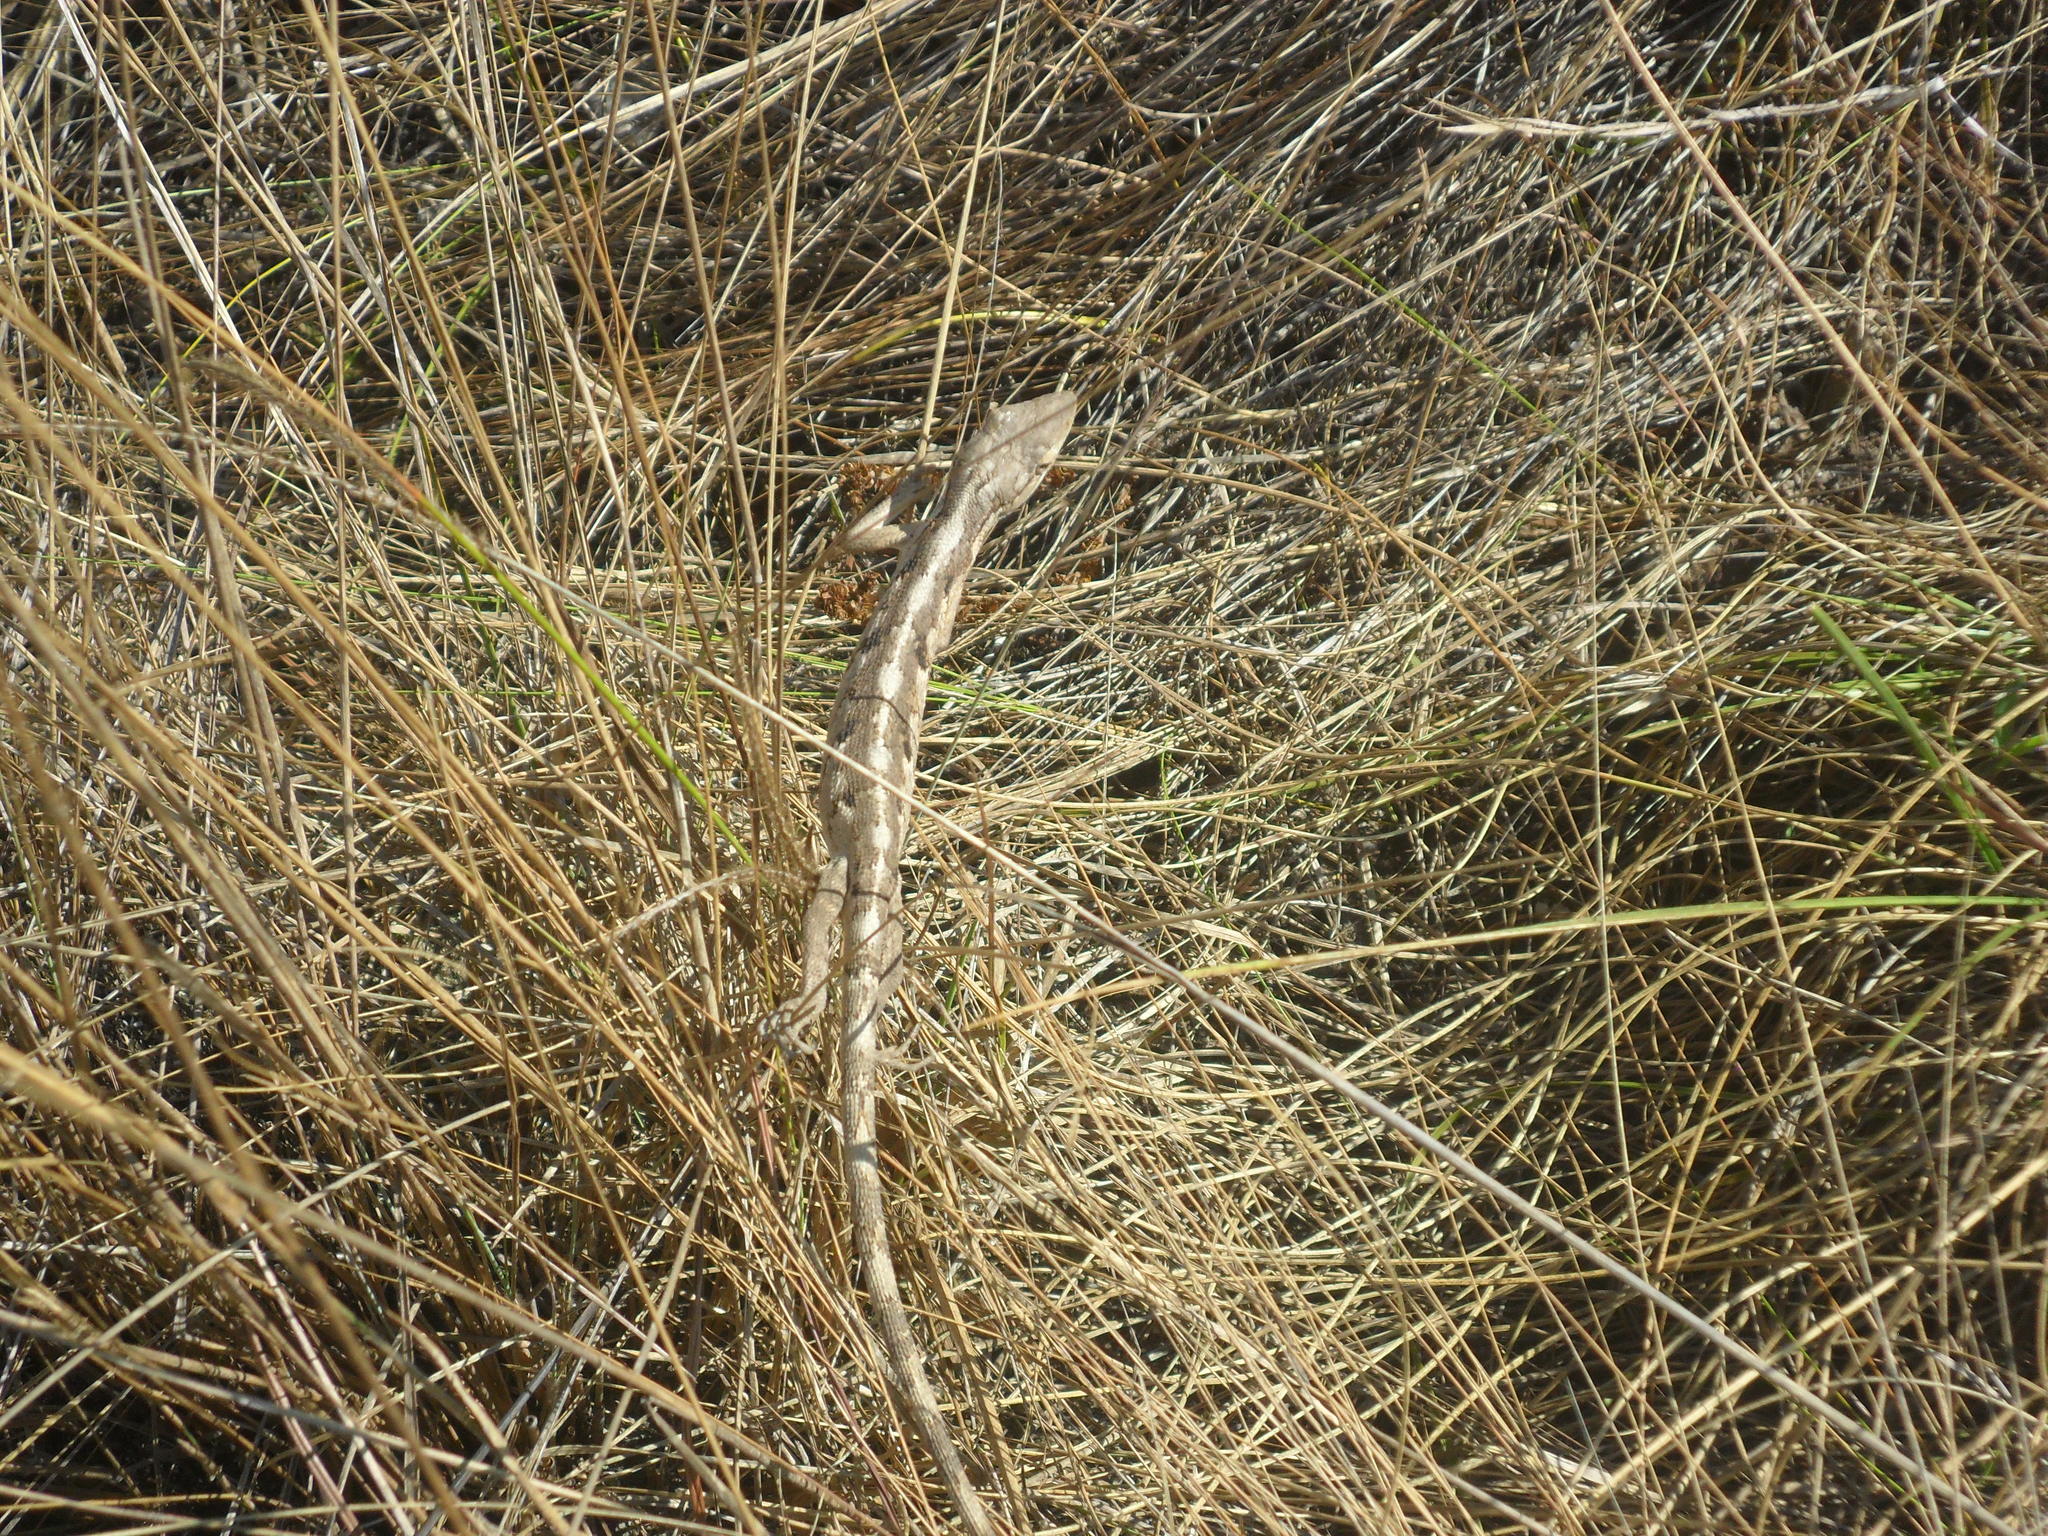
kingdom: Animalia
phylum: Chordata
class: Squamata
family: Polychrotidae
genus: Polychrus
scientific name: Polychrus acutirostris
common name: Brazilian bush anole
